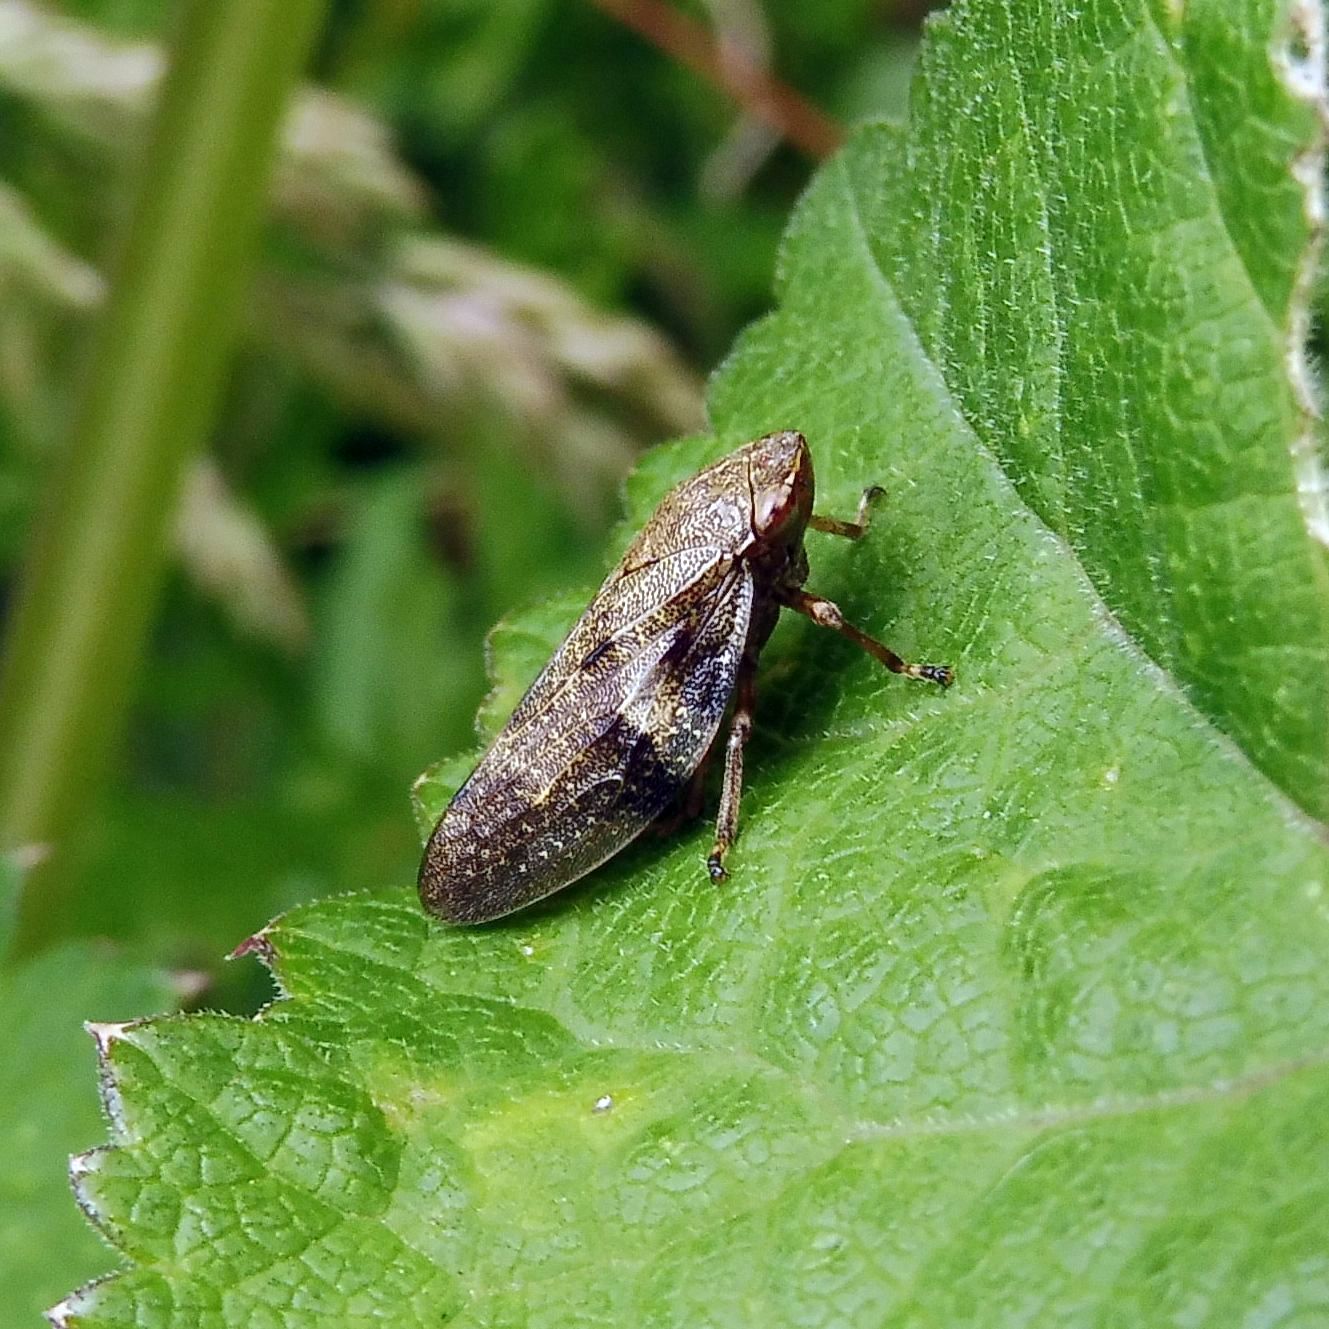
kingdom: Animalia
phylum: Arthropoda
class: Insecta
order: Hemiptera
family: Aphrophoridae
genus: Aphrophora
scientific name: Aphrophora alni
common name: European alder spittlebug
